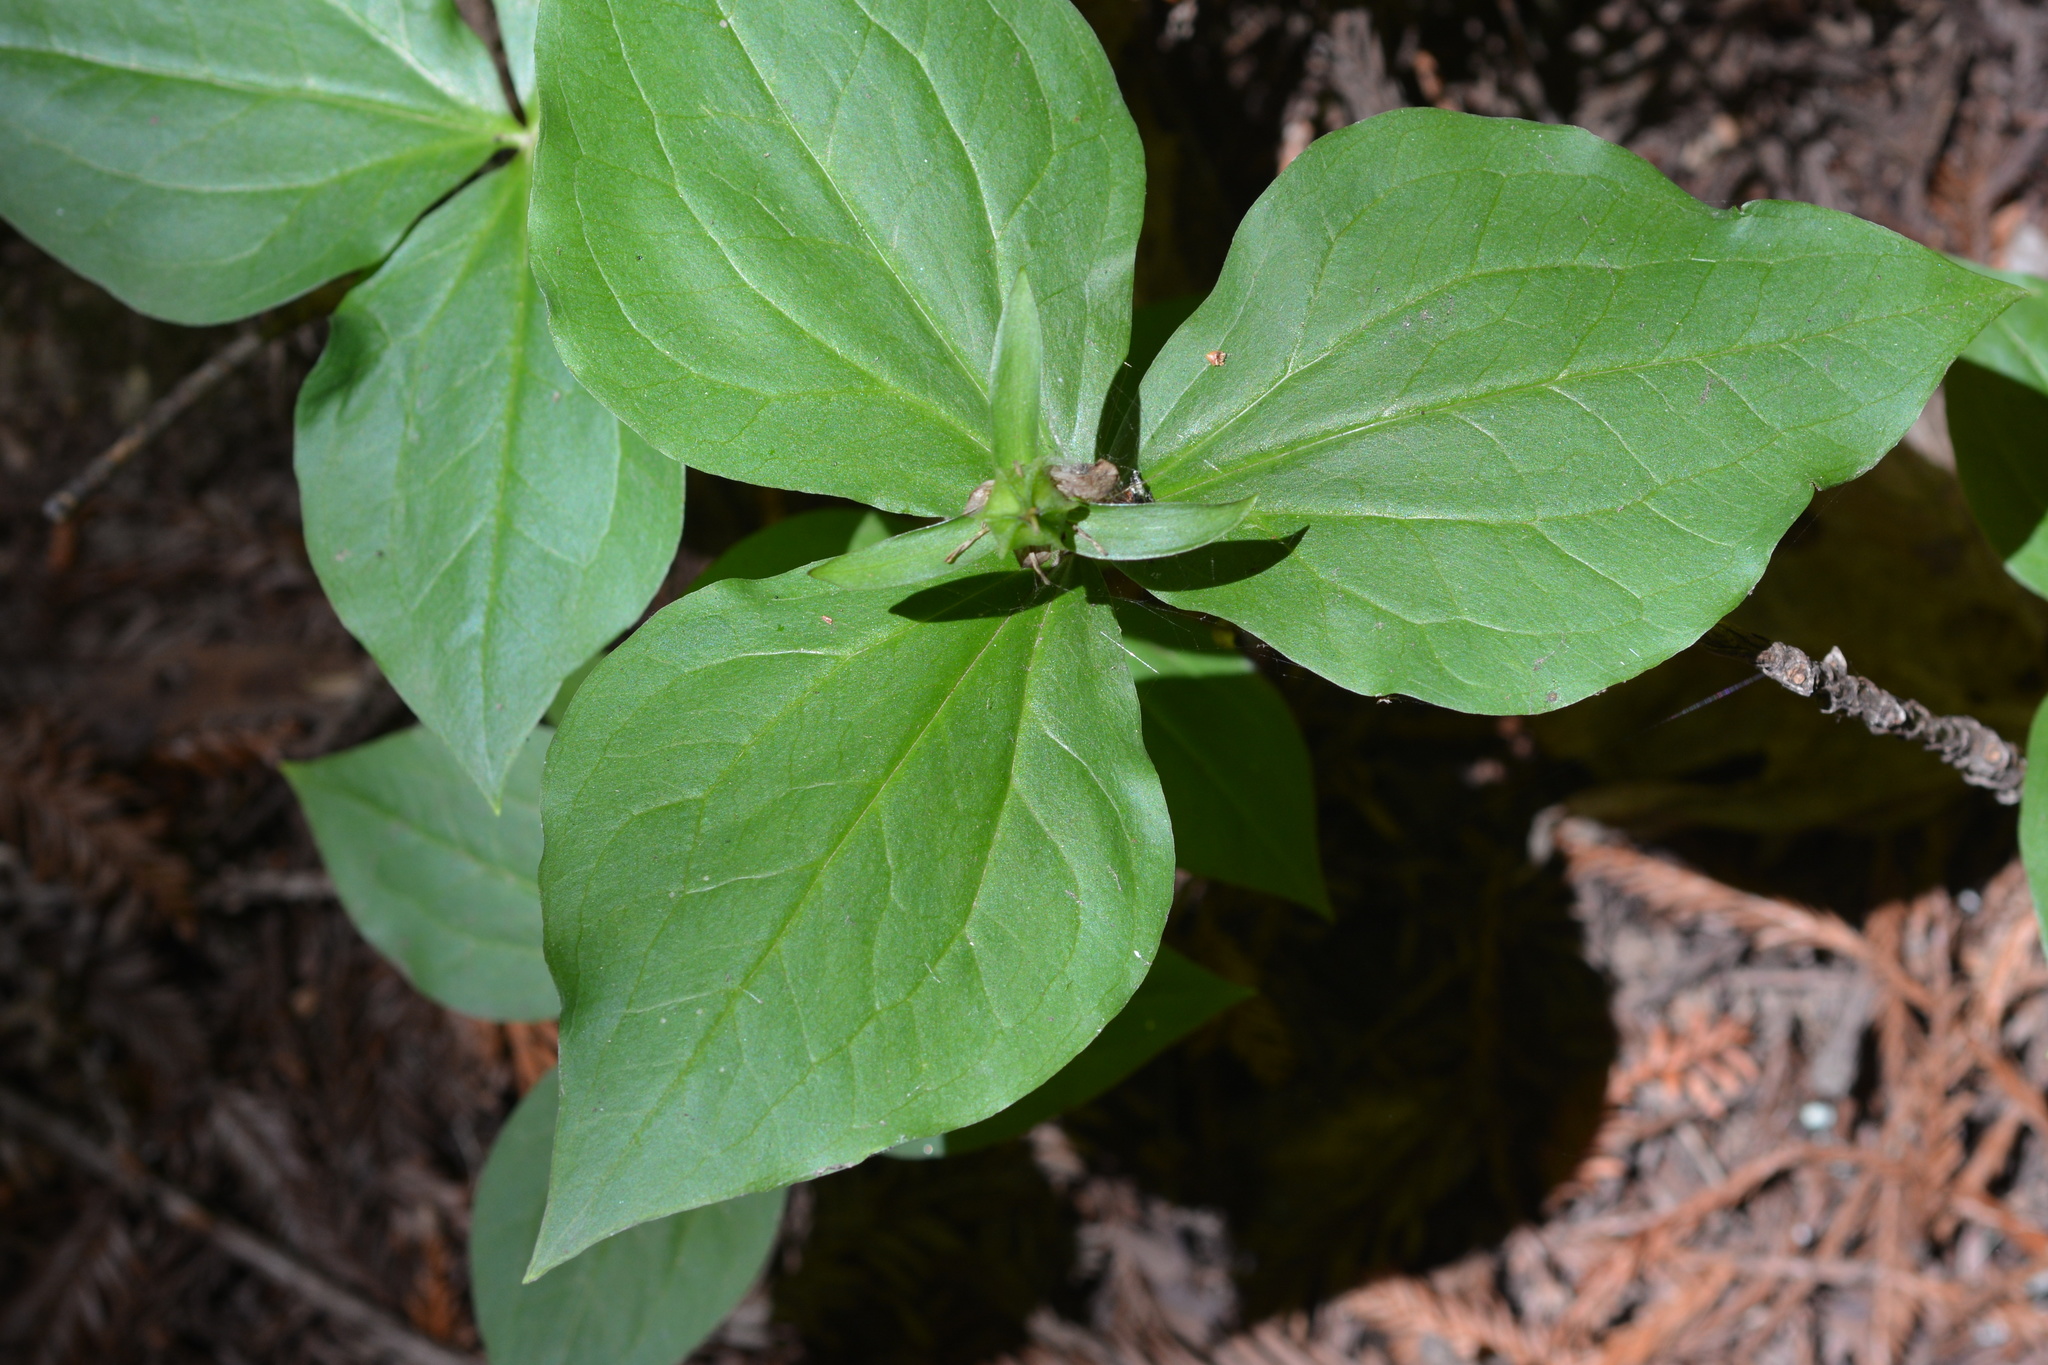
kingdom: Plantae
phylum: Tracheophyta
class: Liliopsida
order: Liliales
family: Melanthiaceae
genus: Trillium
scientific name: Trillium ovatum
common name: Pacific trillium
